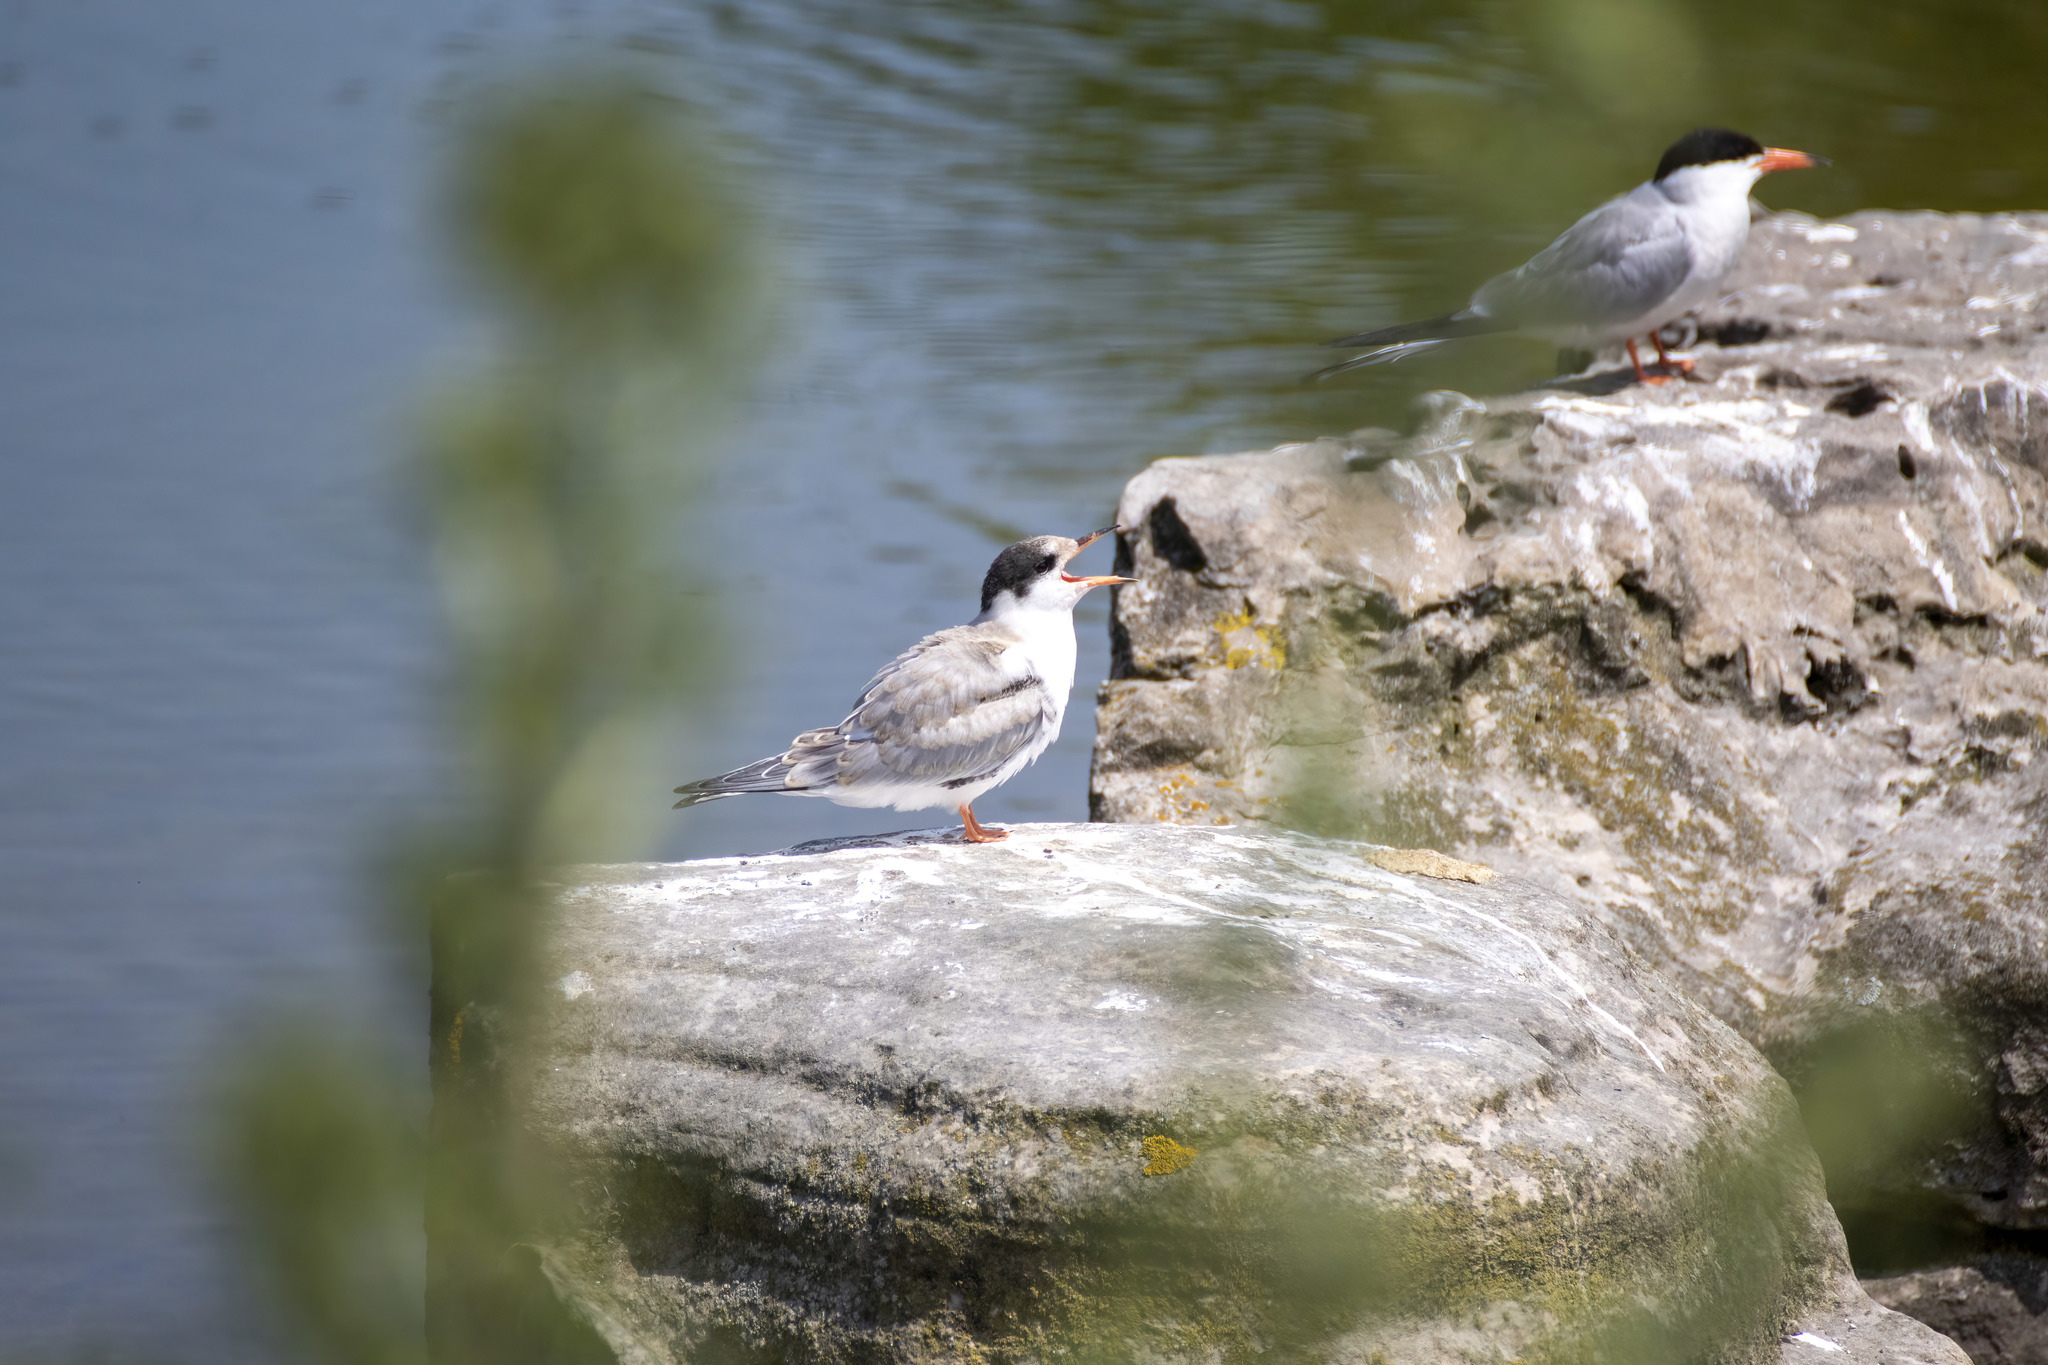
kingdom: Animalia
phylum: Chordata
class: Aves
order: Charadriiformes
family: Laridae
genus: Sterna
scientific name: Sterna hirundo
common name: Common tern
